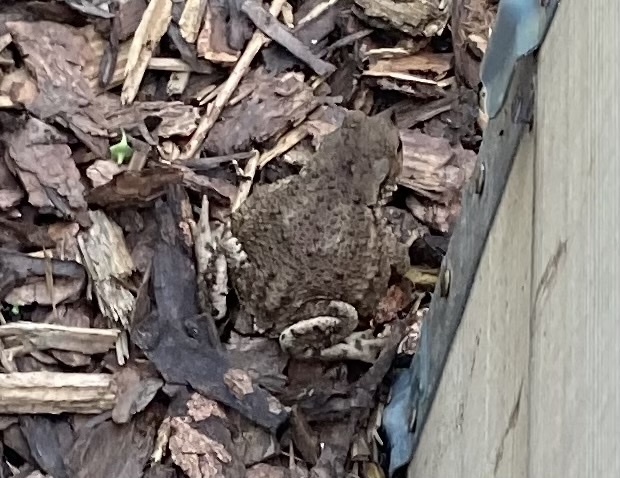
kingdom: Animalia
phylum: Chordata
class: Amphibia
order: Anura
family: Bufonidae
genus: Bufo
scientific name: Bufo bufo
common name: Common toad
